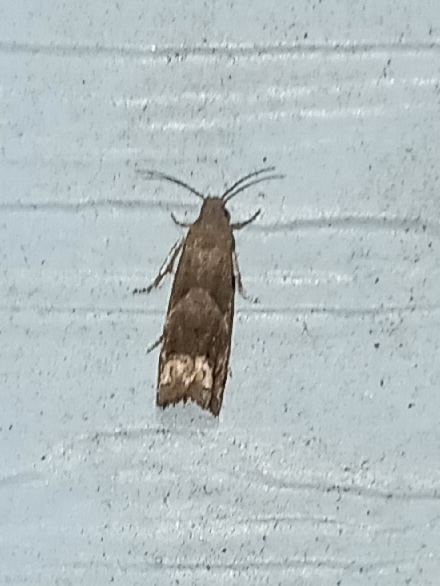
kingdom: Animalia
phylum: Arthropoda
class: Insecta
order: Lepidoptera
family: Tortricidae
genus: Epiblema
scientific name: Epiblema strenuana
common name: Ragweed borer moth
